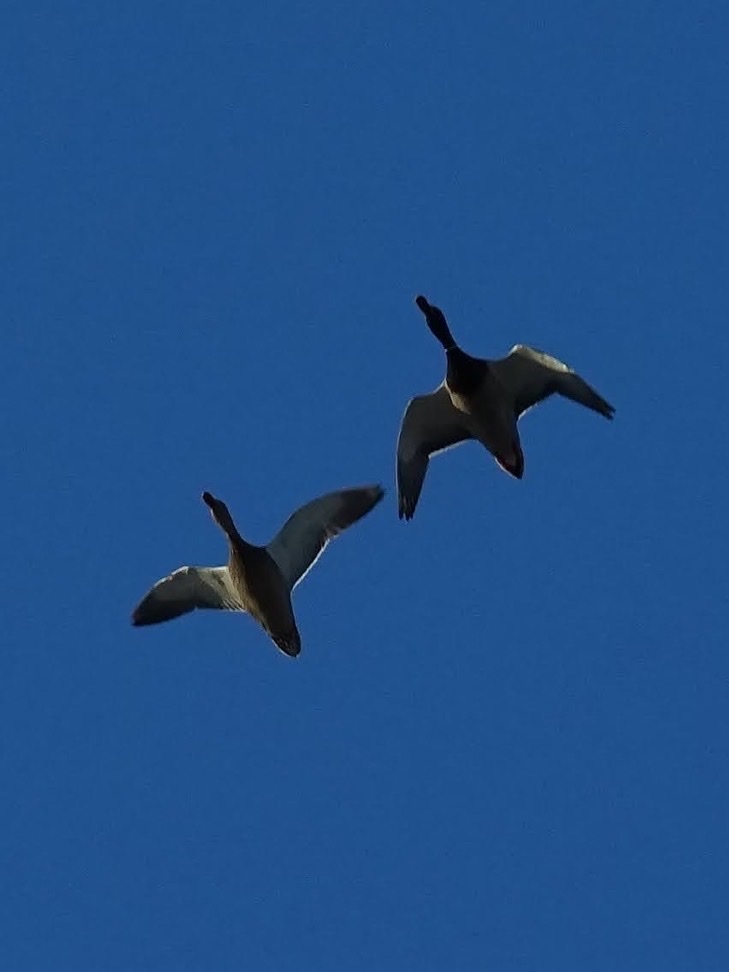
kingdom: Animalia
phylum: Chordata
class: Aves
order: Anseriformes
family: Anatidae
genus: Anas
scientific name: Anas platyrhynchos
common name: Mallard
